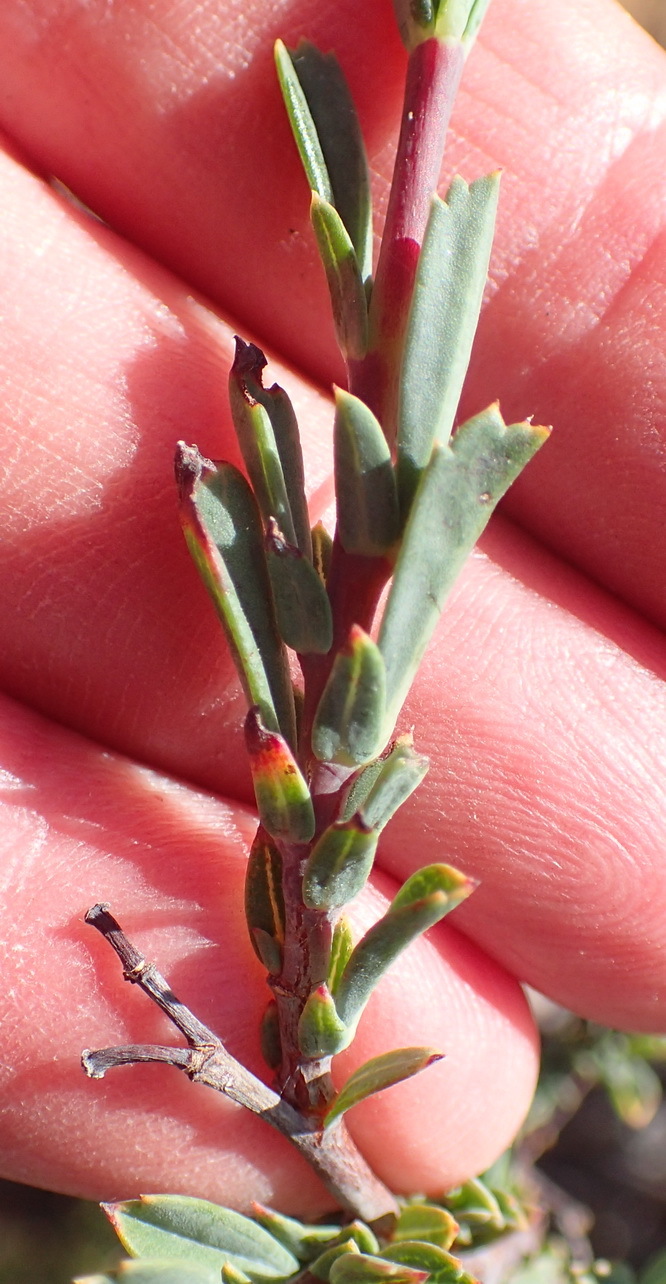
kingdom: Plantae
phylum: Tracheophyta
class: Magnoliopsida
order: Malvales
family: Malvaceae
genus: Hermannia
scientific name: Hermannia
